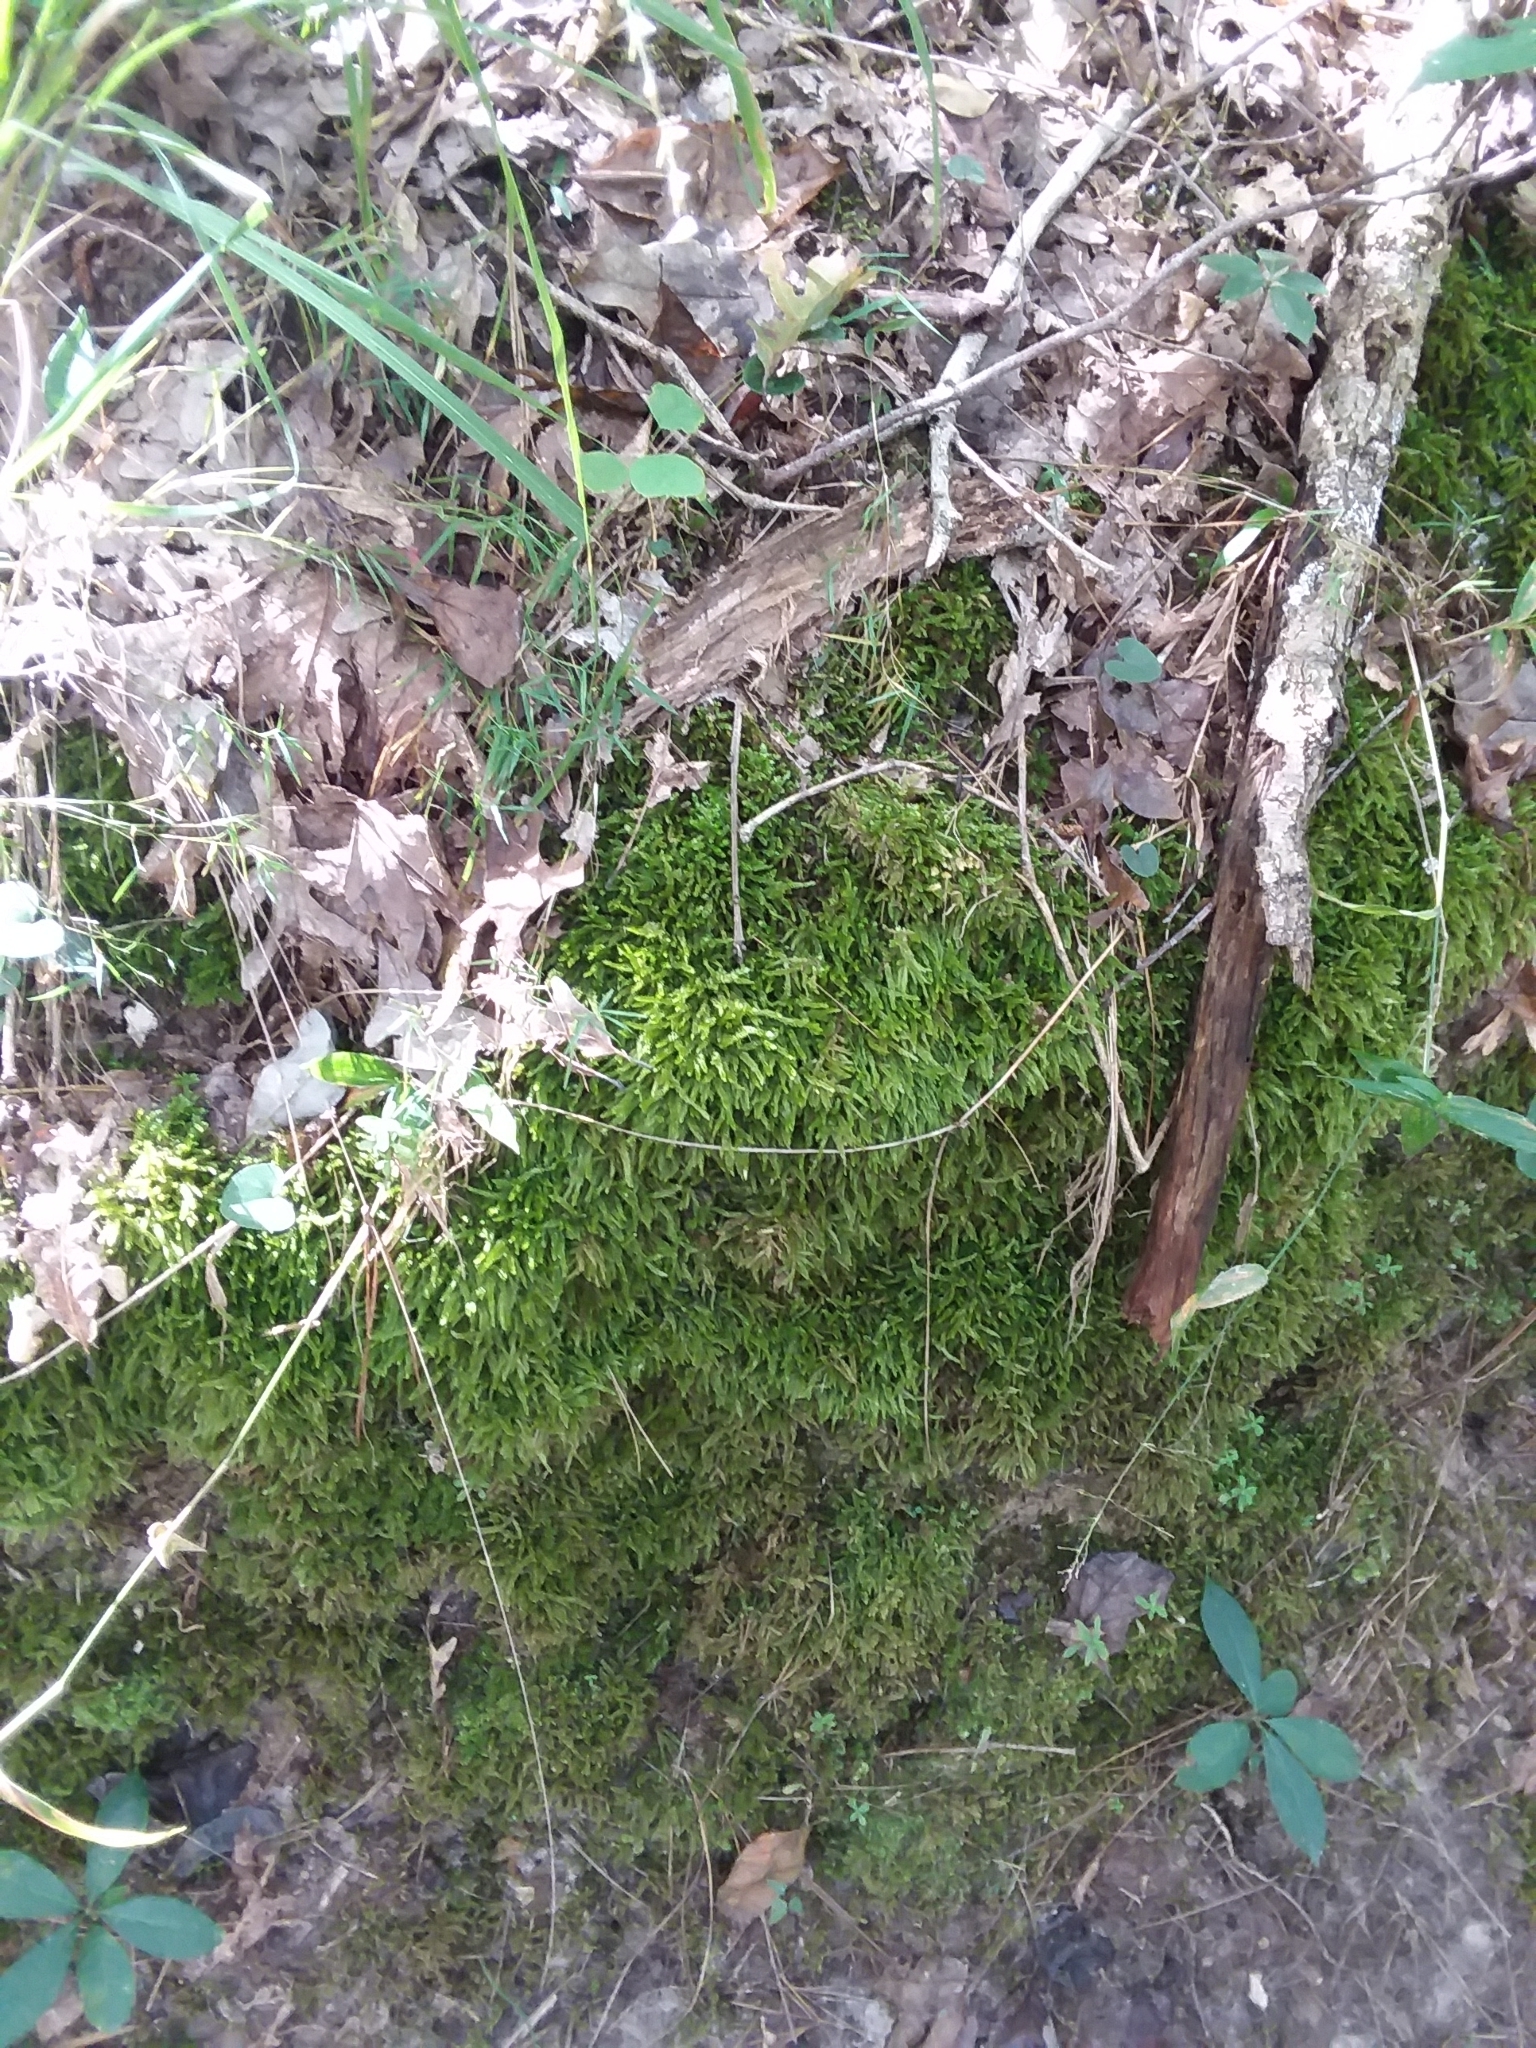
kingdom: Plantae
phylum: Bryophyta
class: Bryopsida
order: Hypnales
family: Brachytheciaceae
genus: Bryoandersonia
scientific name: Bryoandersonia illecebra
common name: Spoon-leaved moss
